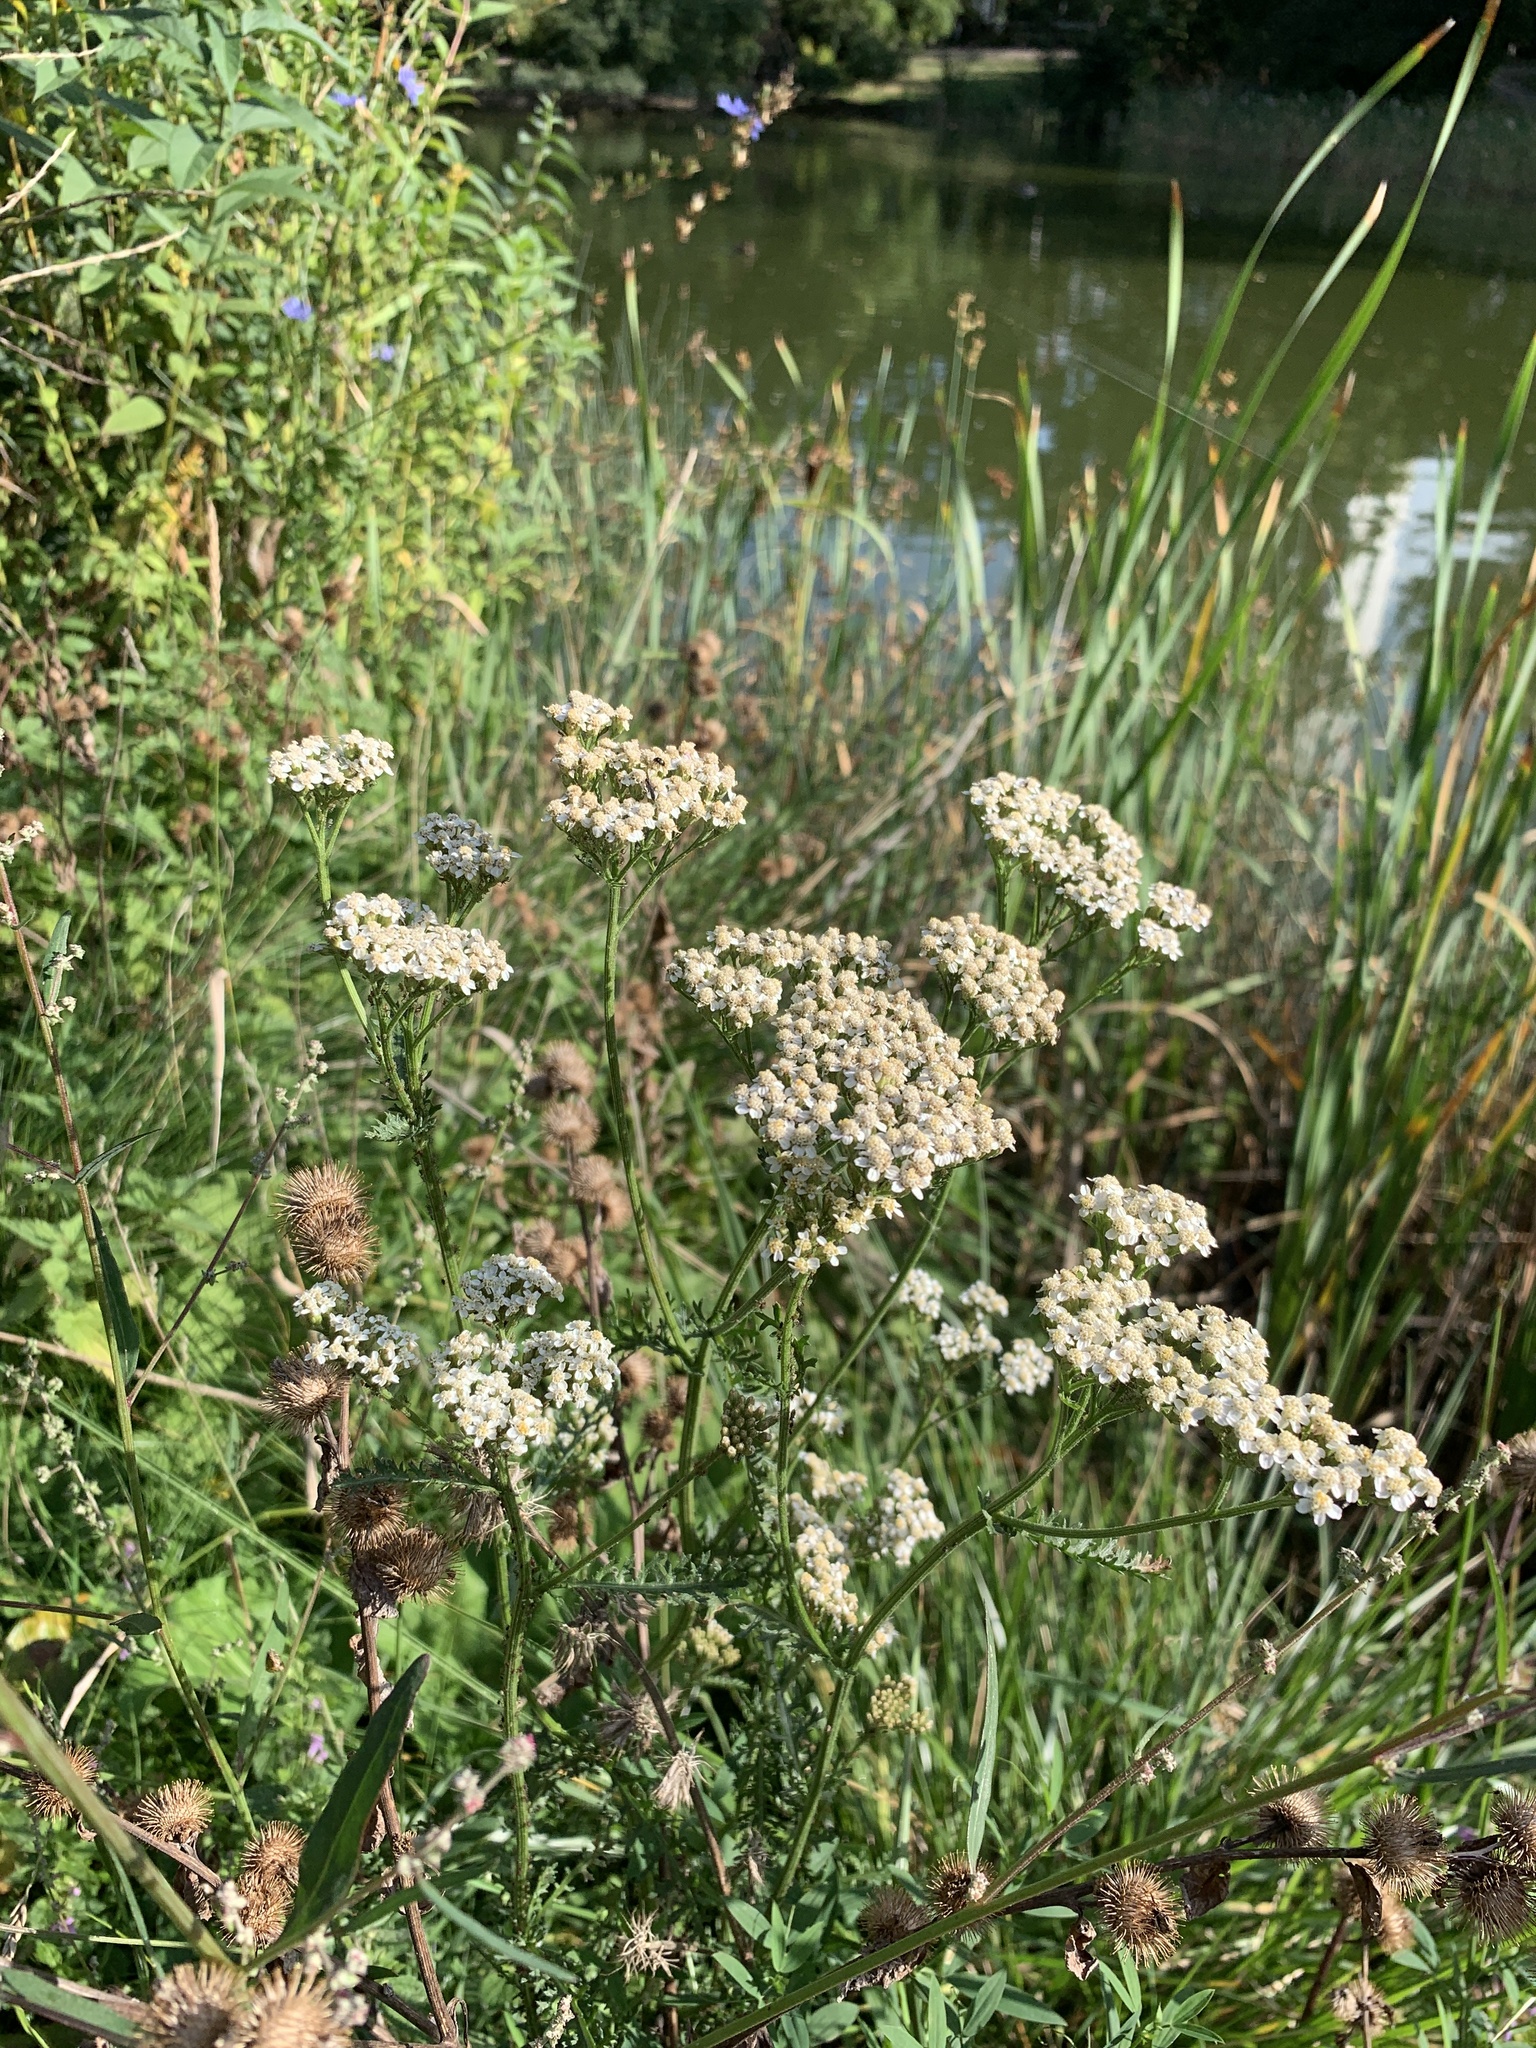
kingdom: Plantae
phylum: Tracheophyta
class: Magnoliopsida
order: Asterales
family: Asteraceae
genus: Achillea
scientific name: Achillea millefolium
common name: Yarrow
